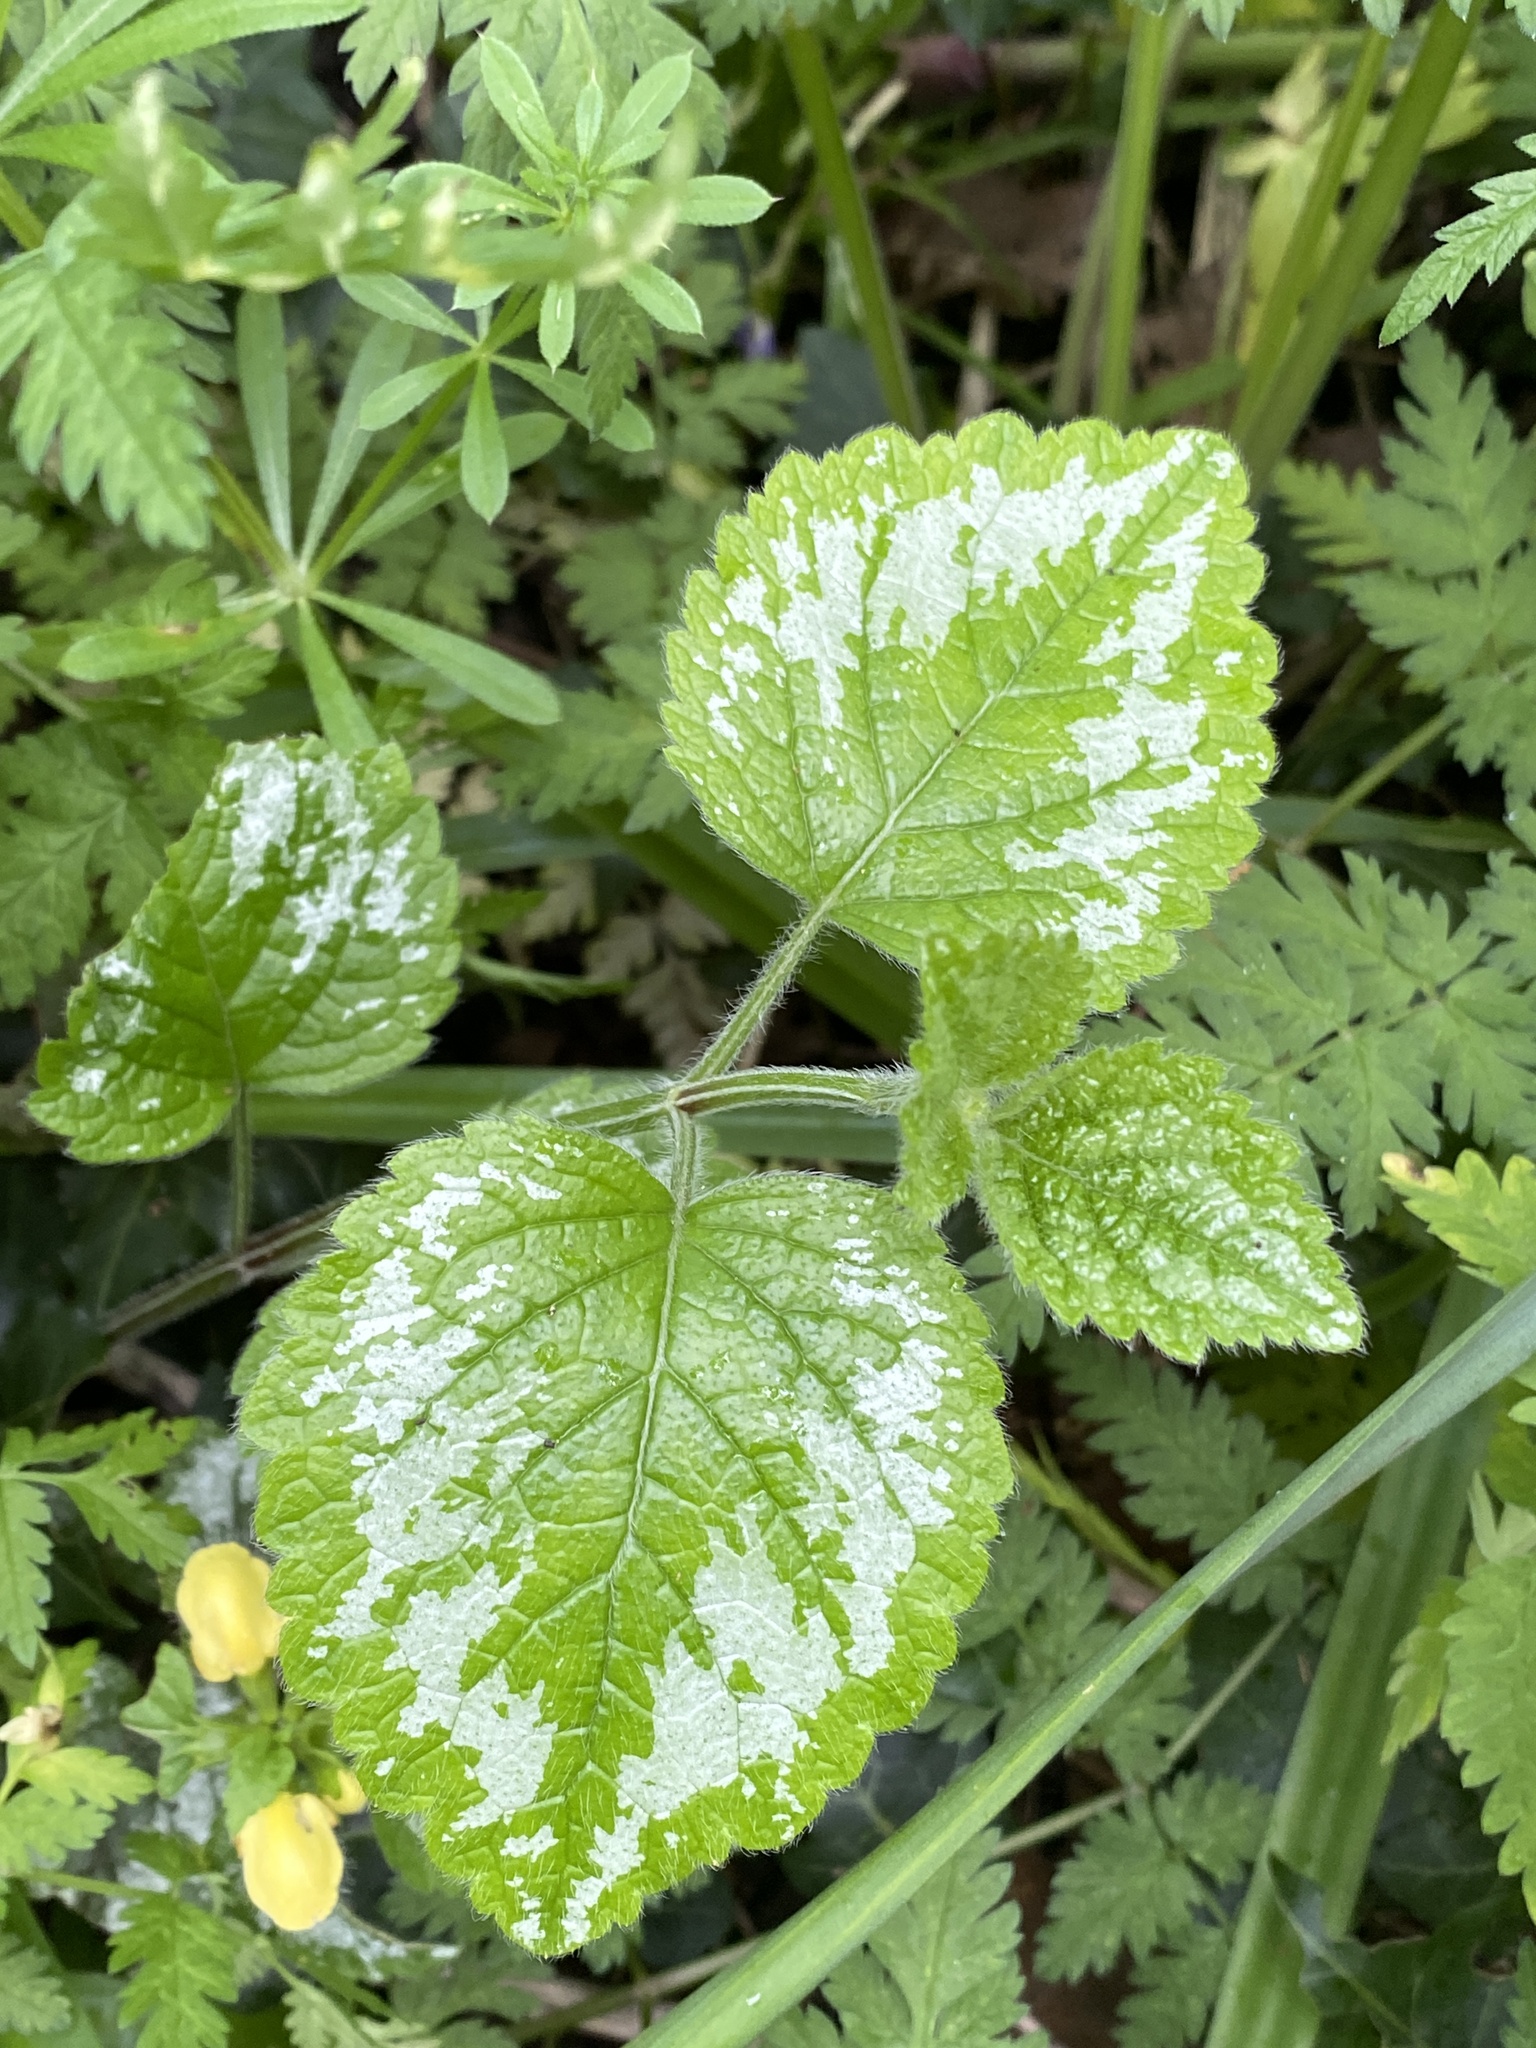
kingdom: Plantae
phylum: Tracheophyta
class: Magnoliopsida
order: Lamiales
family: Lamiaceae
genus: Lamium
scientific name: Lamium galeobdolon
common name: Yellow archangel
